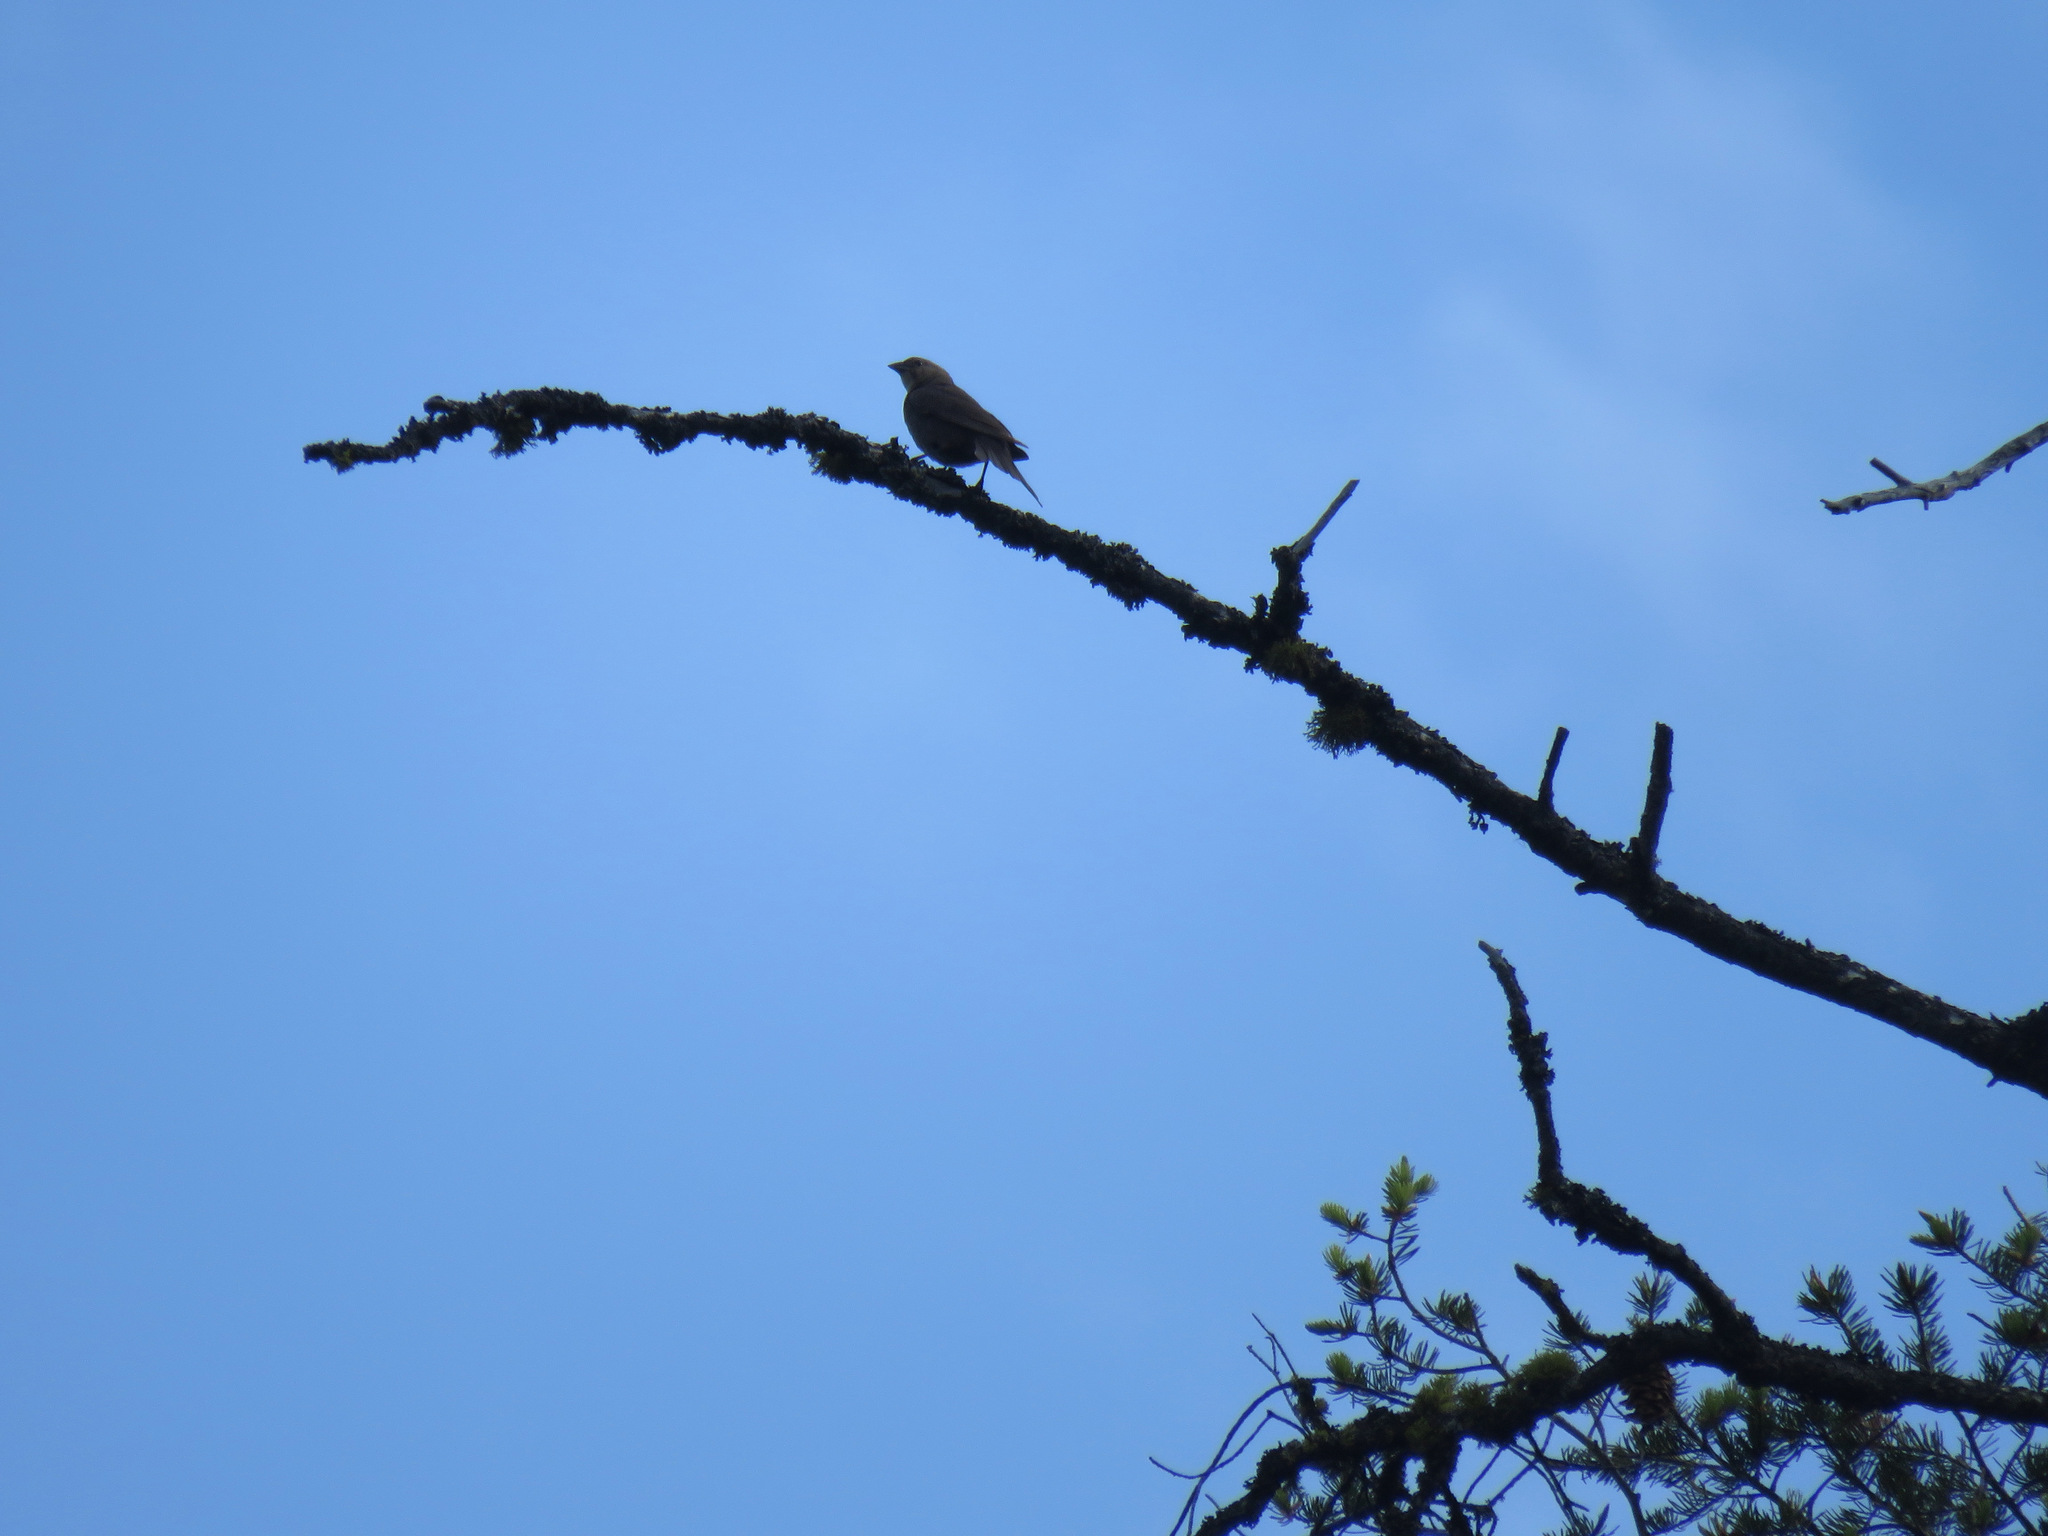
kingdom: Animalia
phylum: Chordata
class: Aves
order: Passeriformes
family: Icteridae
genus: Molothrus
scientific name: Molothrus ater
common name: Brown-headed cowbird
